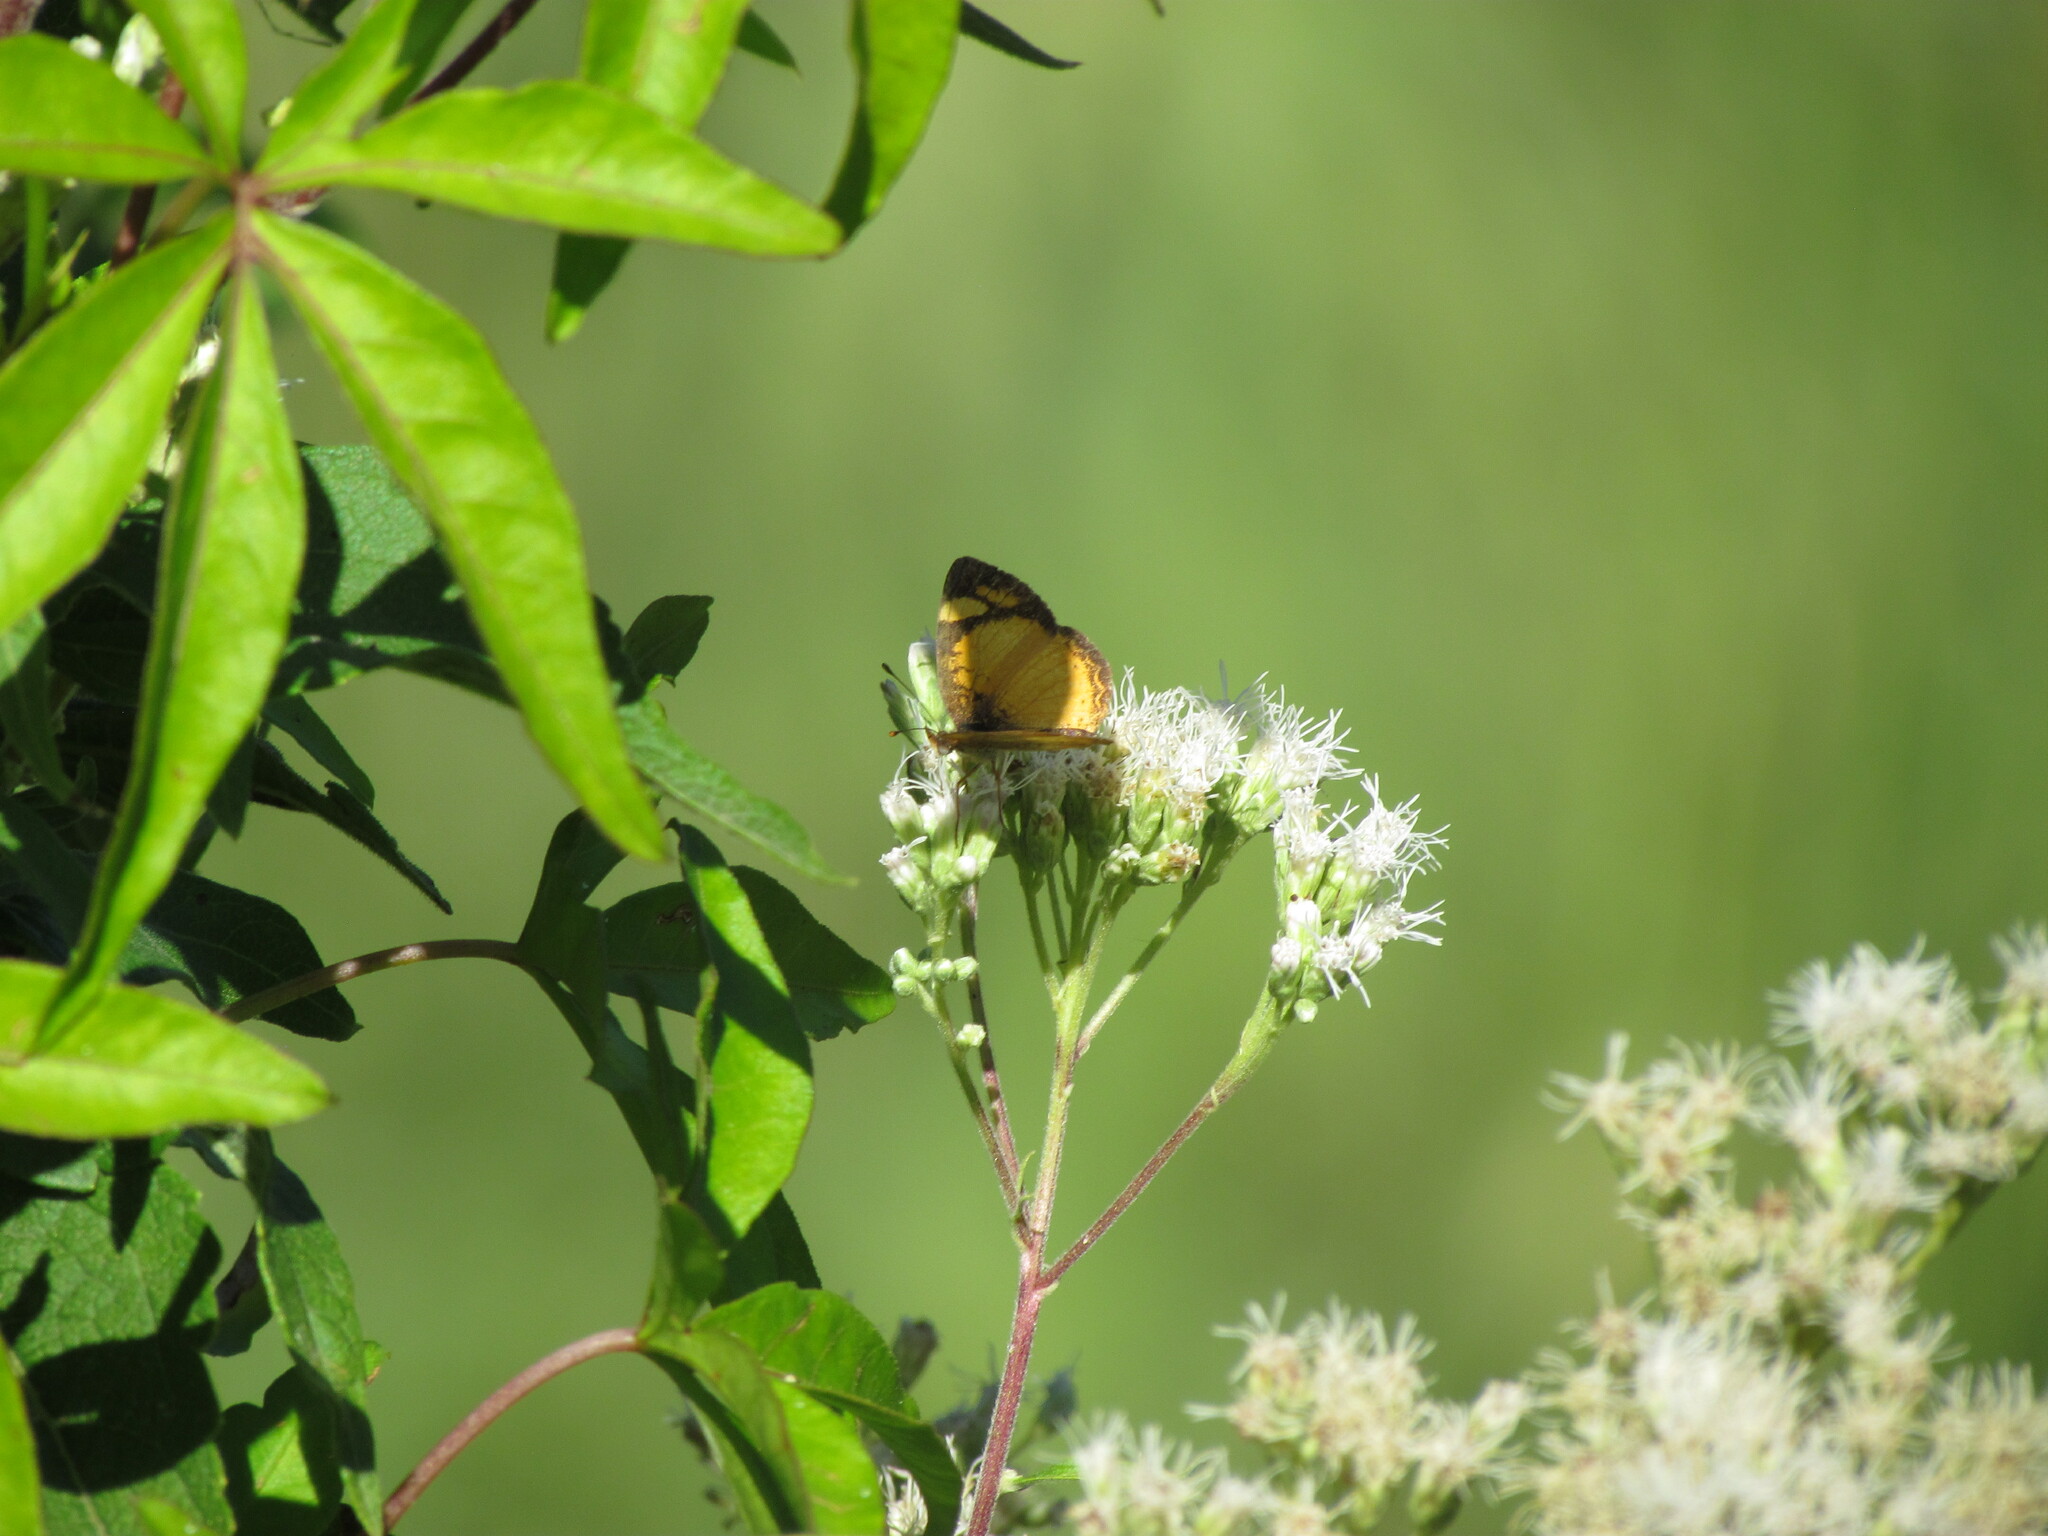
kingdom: Animalia
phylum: Arthropoda
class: Insecta
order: Lepidoptera
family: Nymphalidae
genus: Tegosa
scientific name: Tegosa claudina
